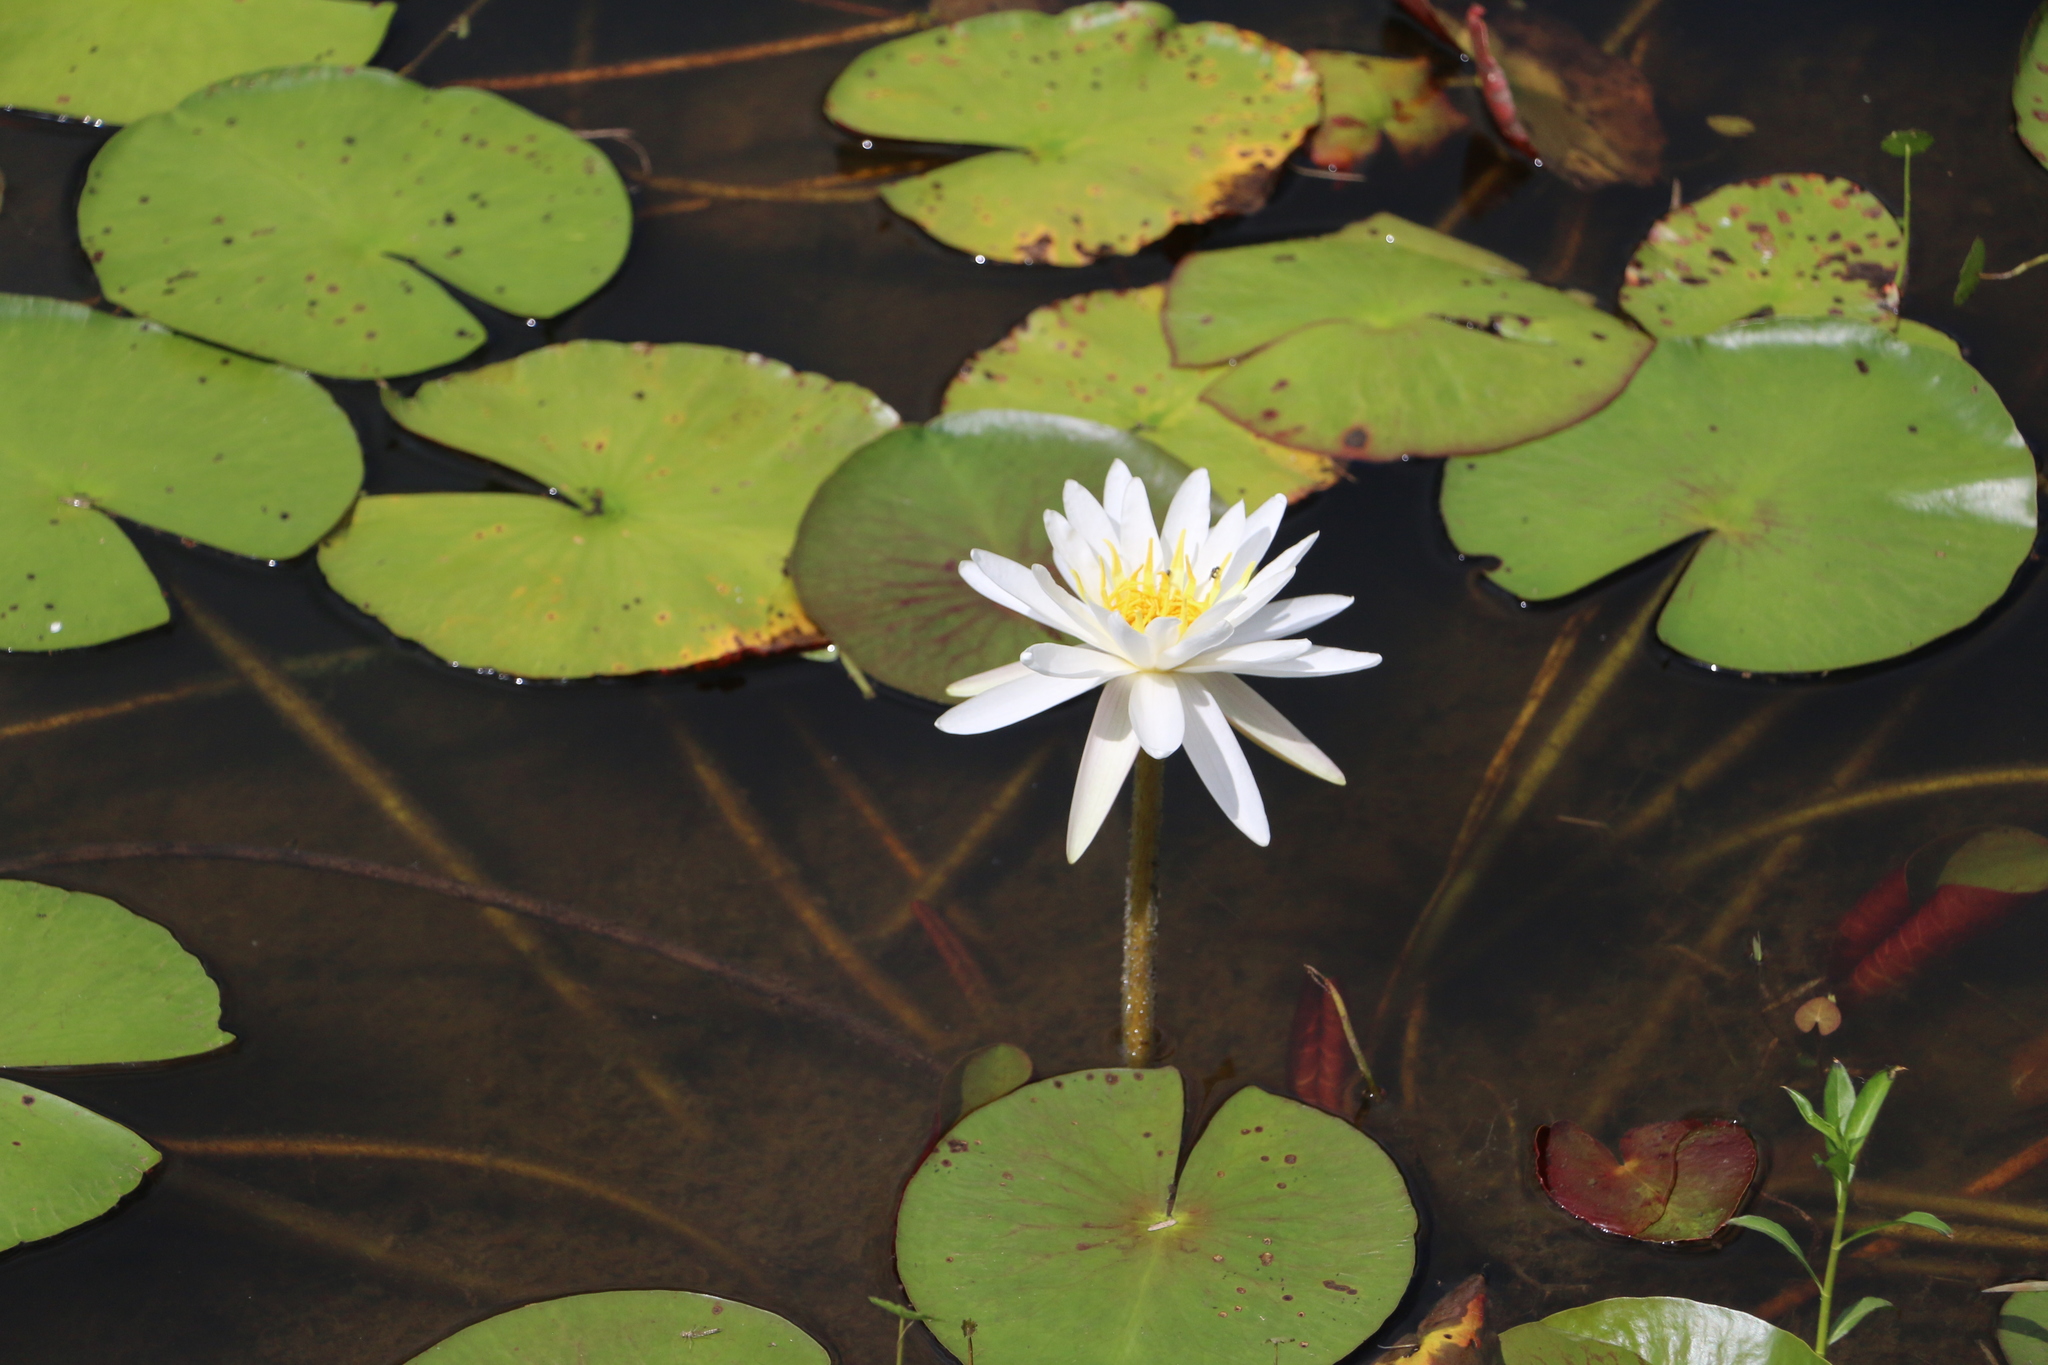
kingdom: Plantae
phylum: Tracheophyta
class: Magnoliopsida
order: Nymphaeales
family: Nymphaeaceae
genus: Nymphaea
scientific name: Nymphaea odorata
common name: Fragrant water-lily
